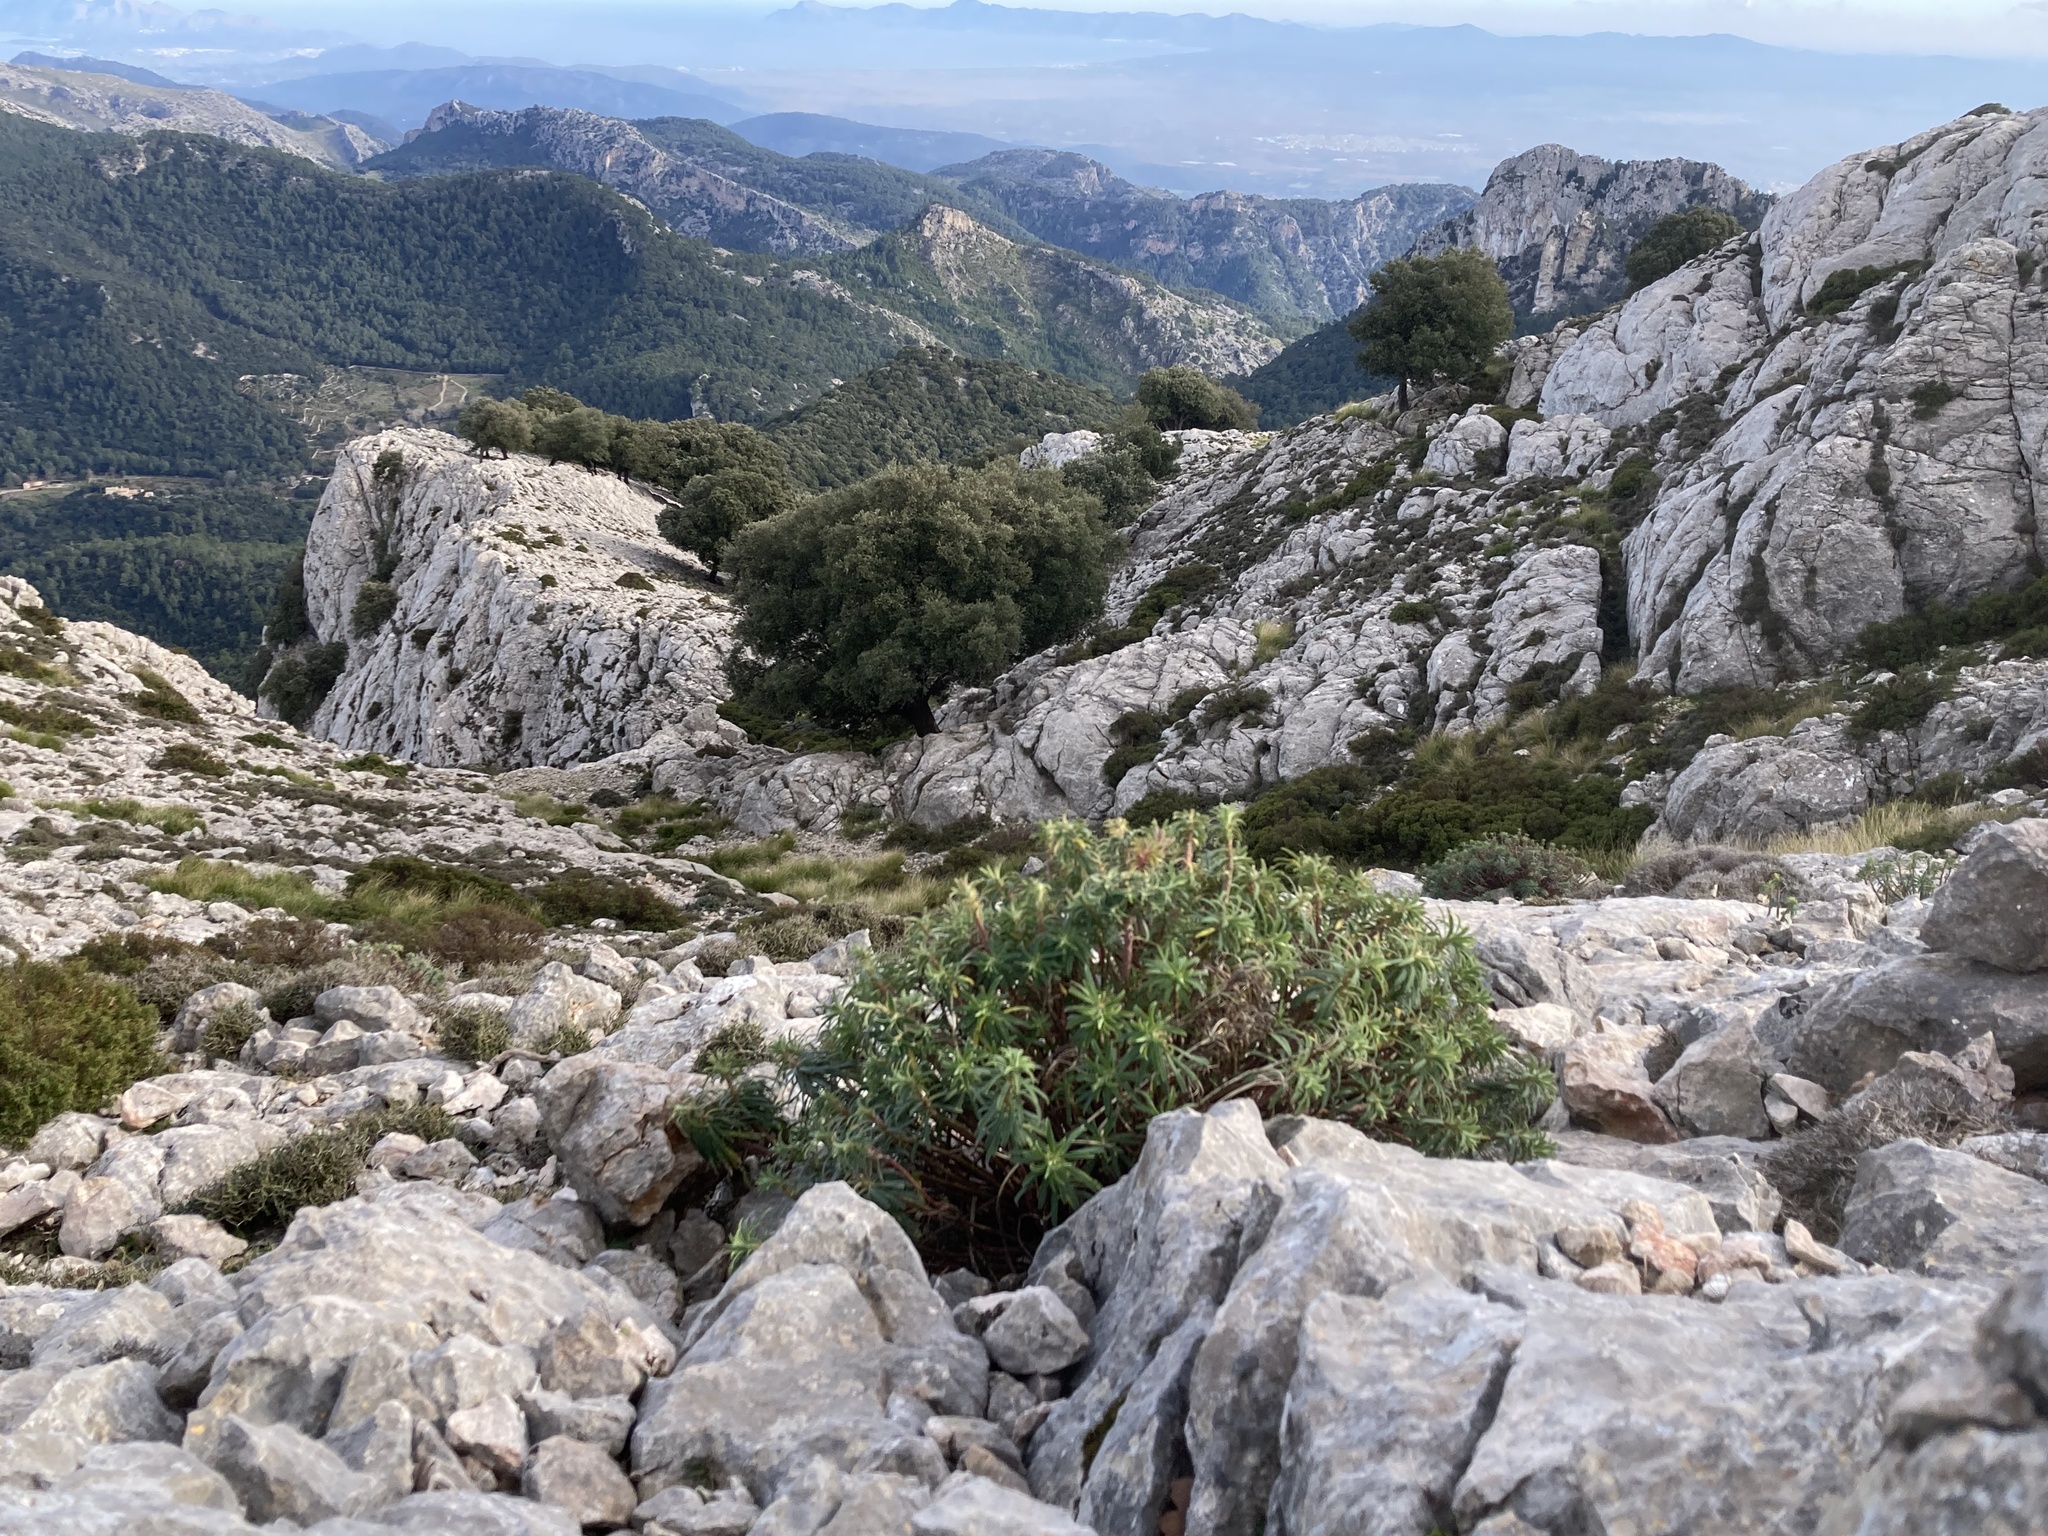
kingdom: Plantae
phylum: Tracheophyta
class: Magnoliopsida
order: Malpighiales
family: Euphorbiaceae
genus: Euphorbia
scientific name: Euphorbia characias
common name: Mediterranean spurge
